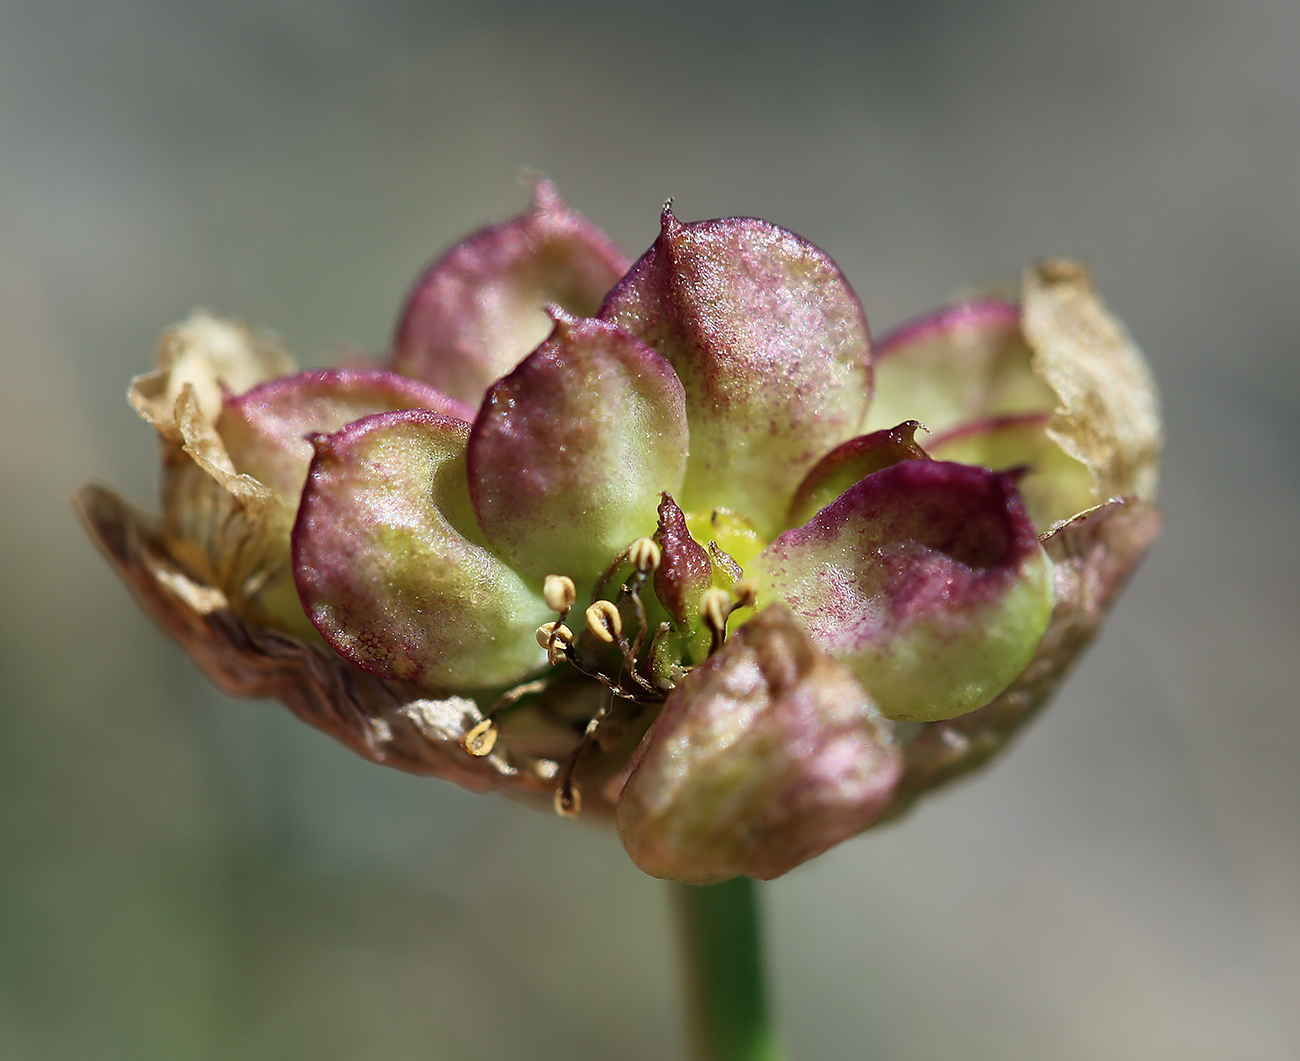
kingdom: Plantae
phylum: Tracheophyta
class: Magnoliopsida
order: Ranunculales
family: Ranunculaceae
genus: Beckwithia
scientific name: Beckwithia andersonii
